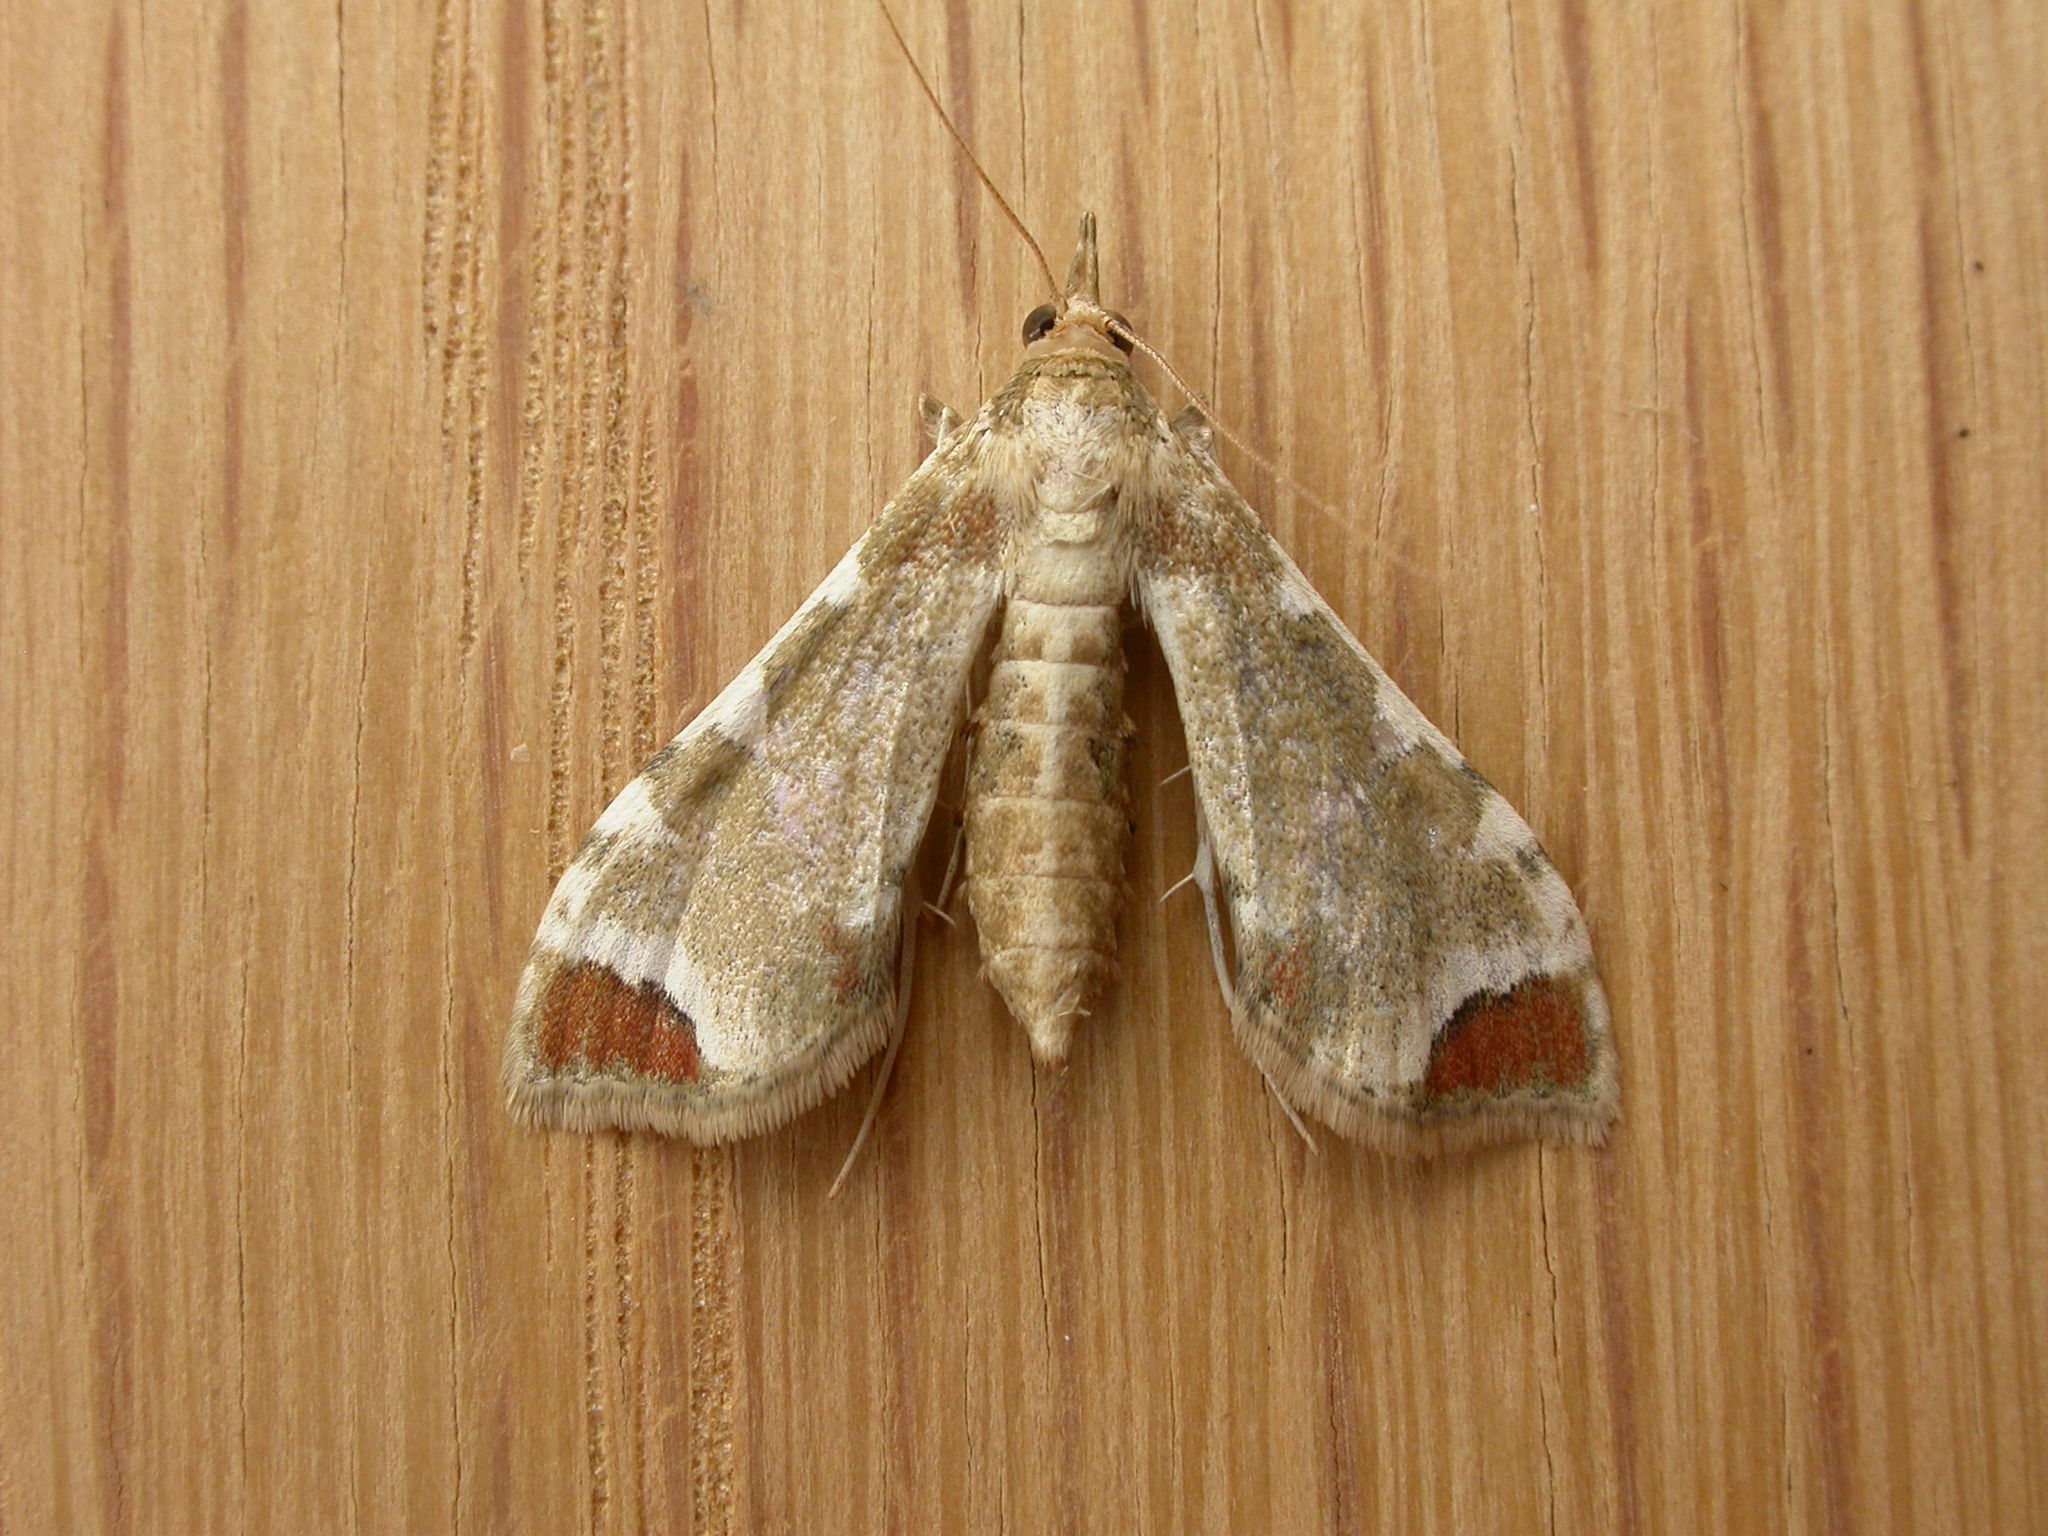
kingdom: Animalia
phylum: Arthropoda
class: Insecta
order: Lepidoptera
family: Crambidae
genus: Sceliodes
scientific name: Sceliodes cordalis
